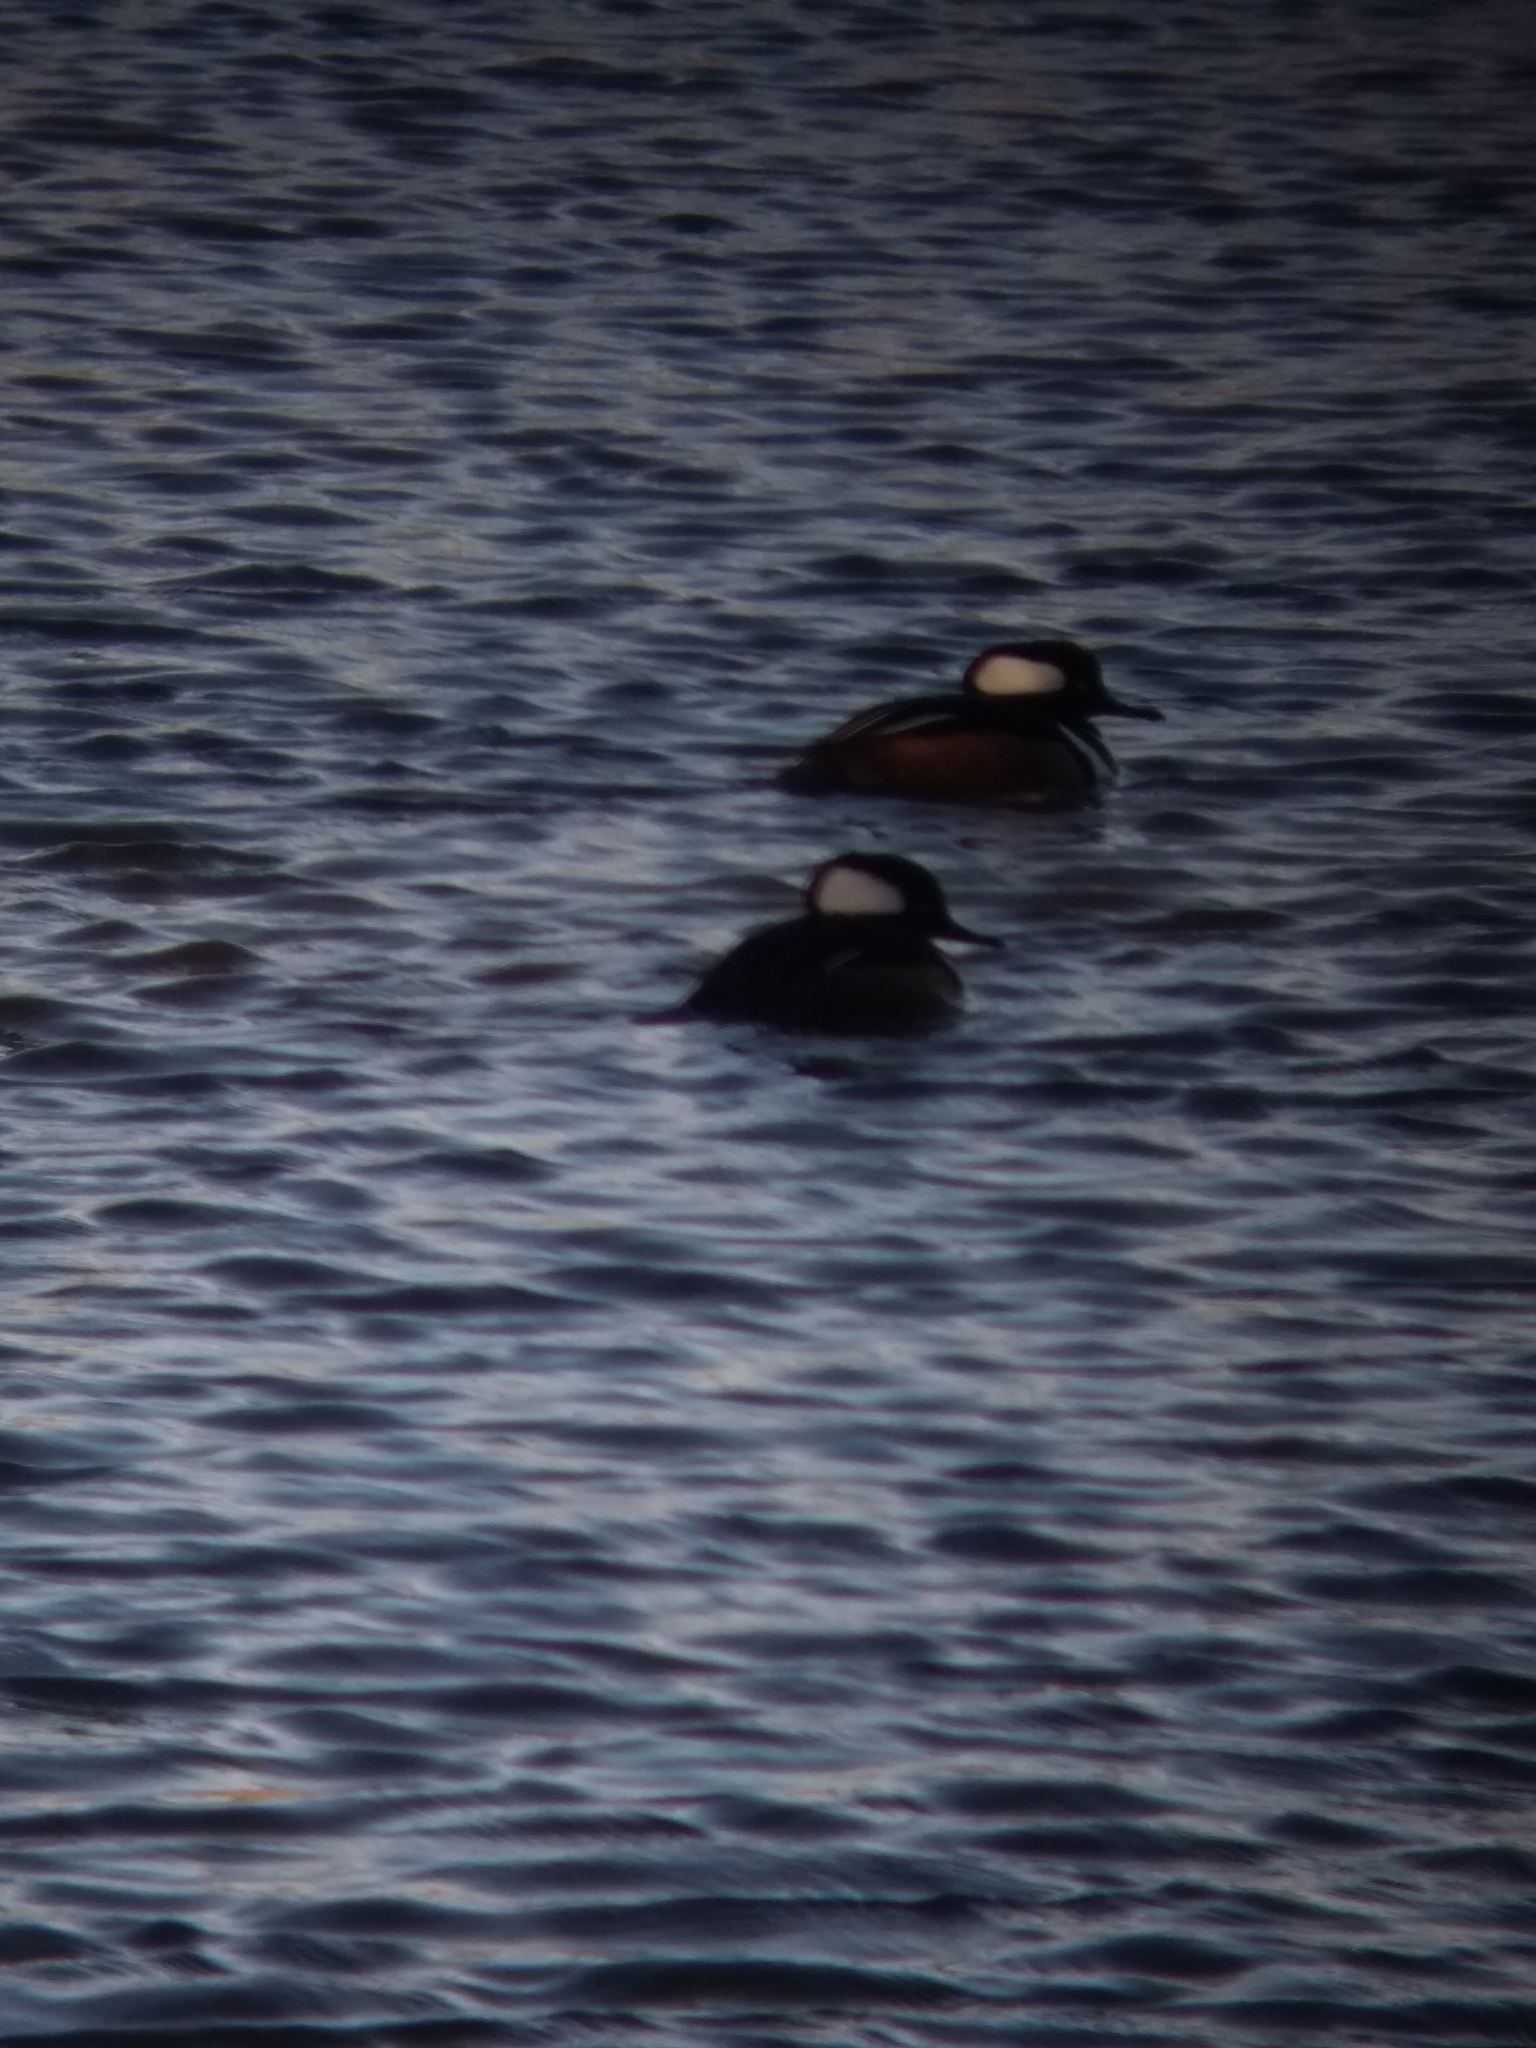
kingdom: Animalia
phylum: Chordata
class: Aves
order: Anseriformes
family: Anatidae
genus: Lophodytes
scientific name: Lophodytes cucullatus
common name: Hooded merganser
